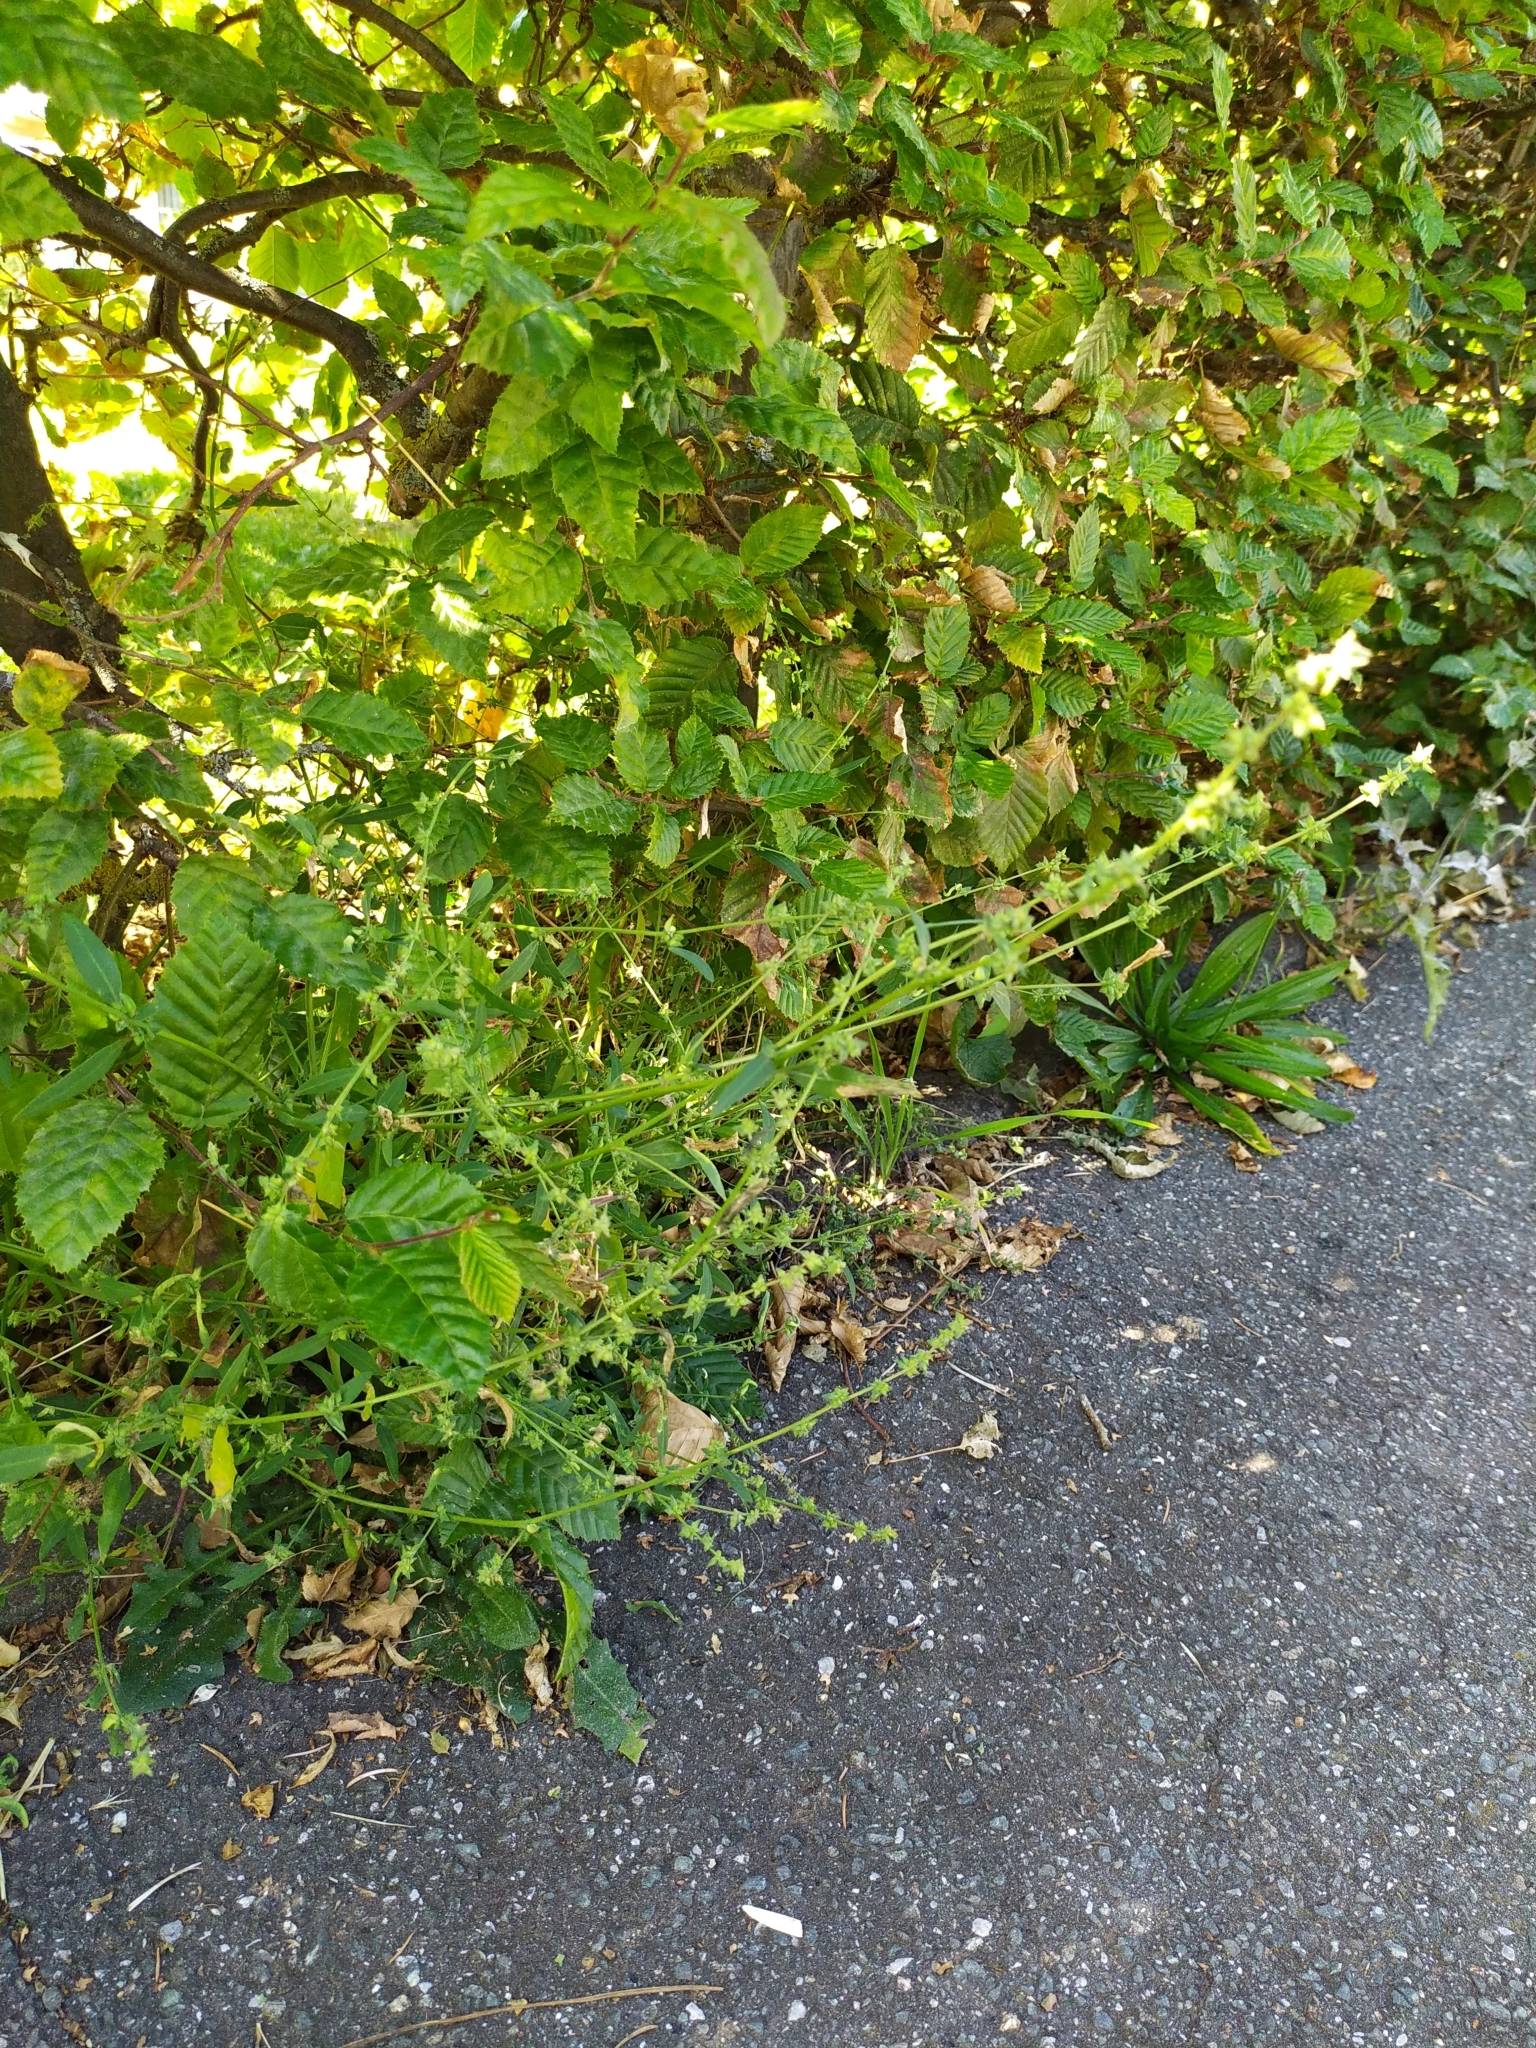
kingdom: Plantae
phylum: Tracheophyta
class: Magnoliopsida
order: Caryophyllales
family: Amaranthaceae
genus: Atriplex
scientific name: Atriplex patula
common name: Common orache
